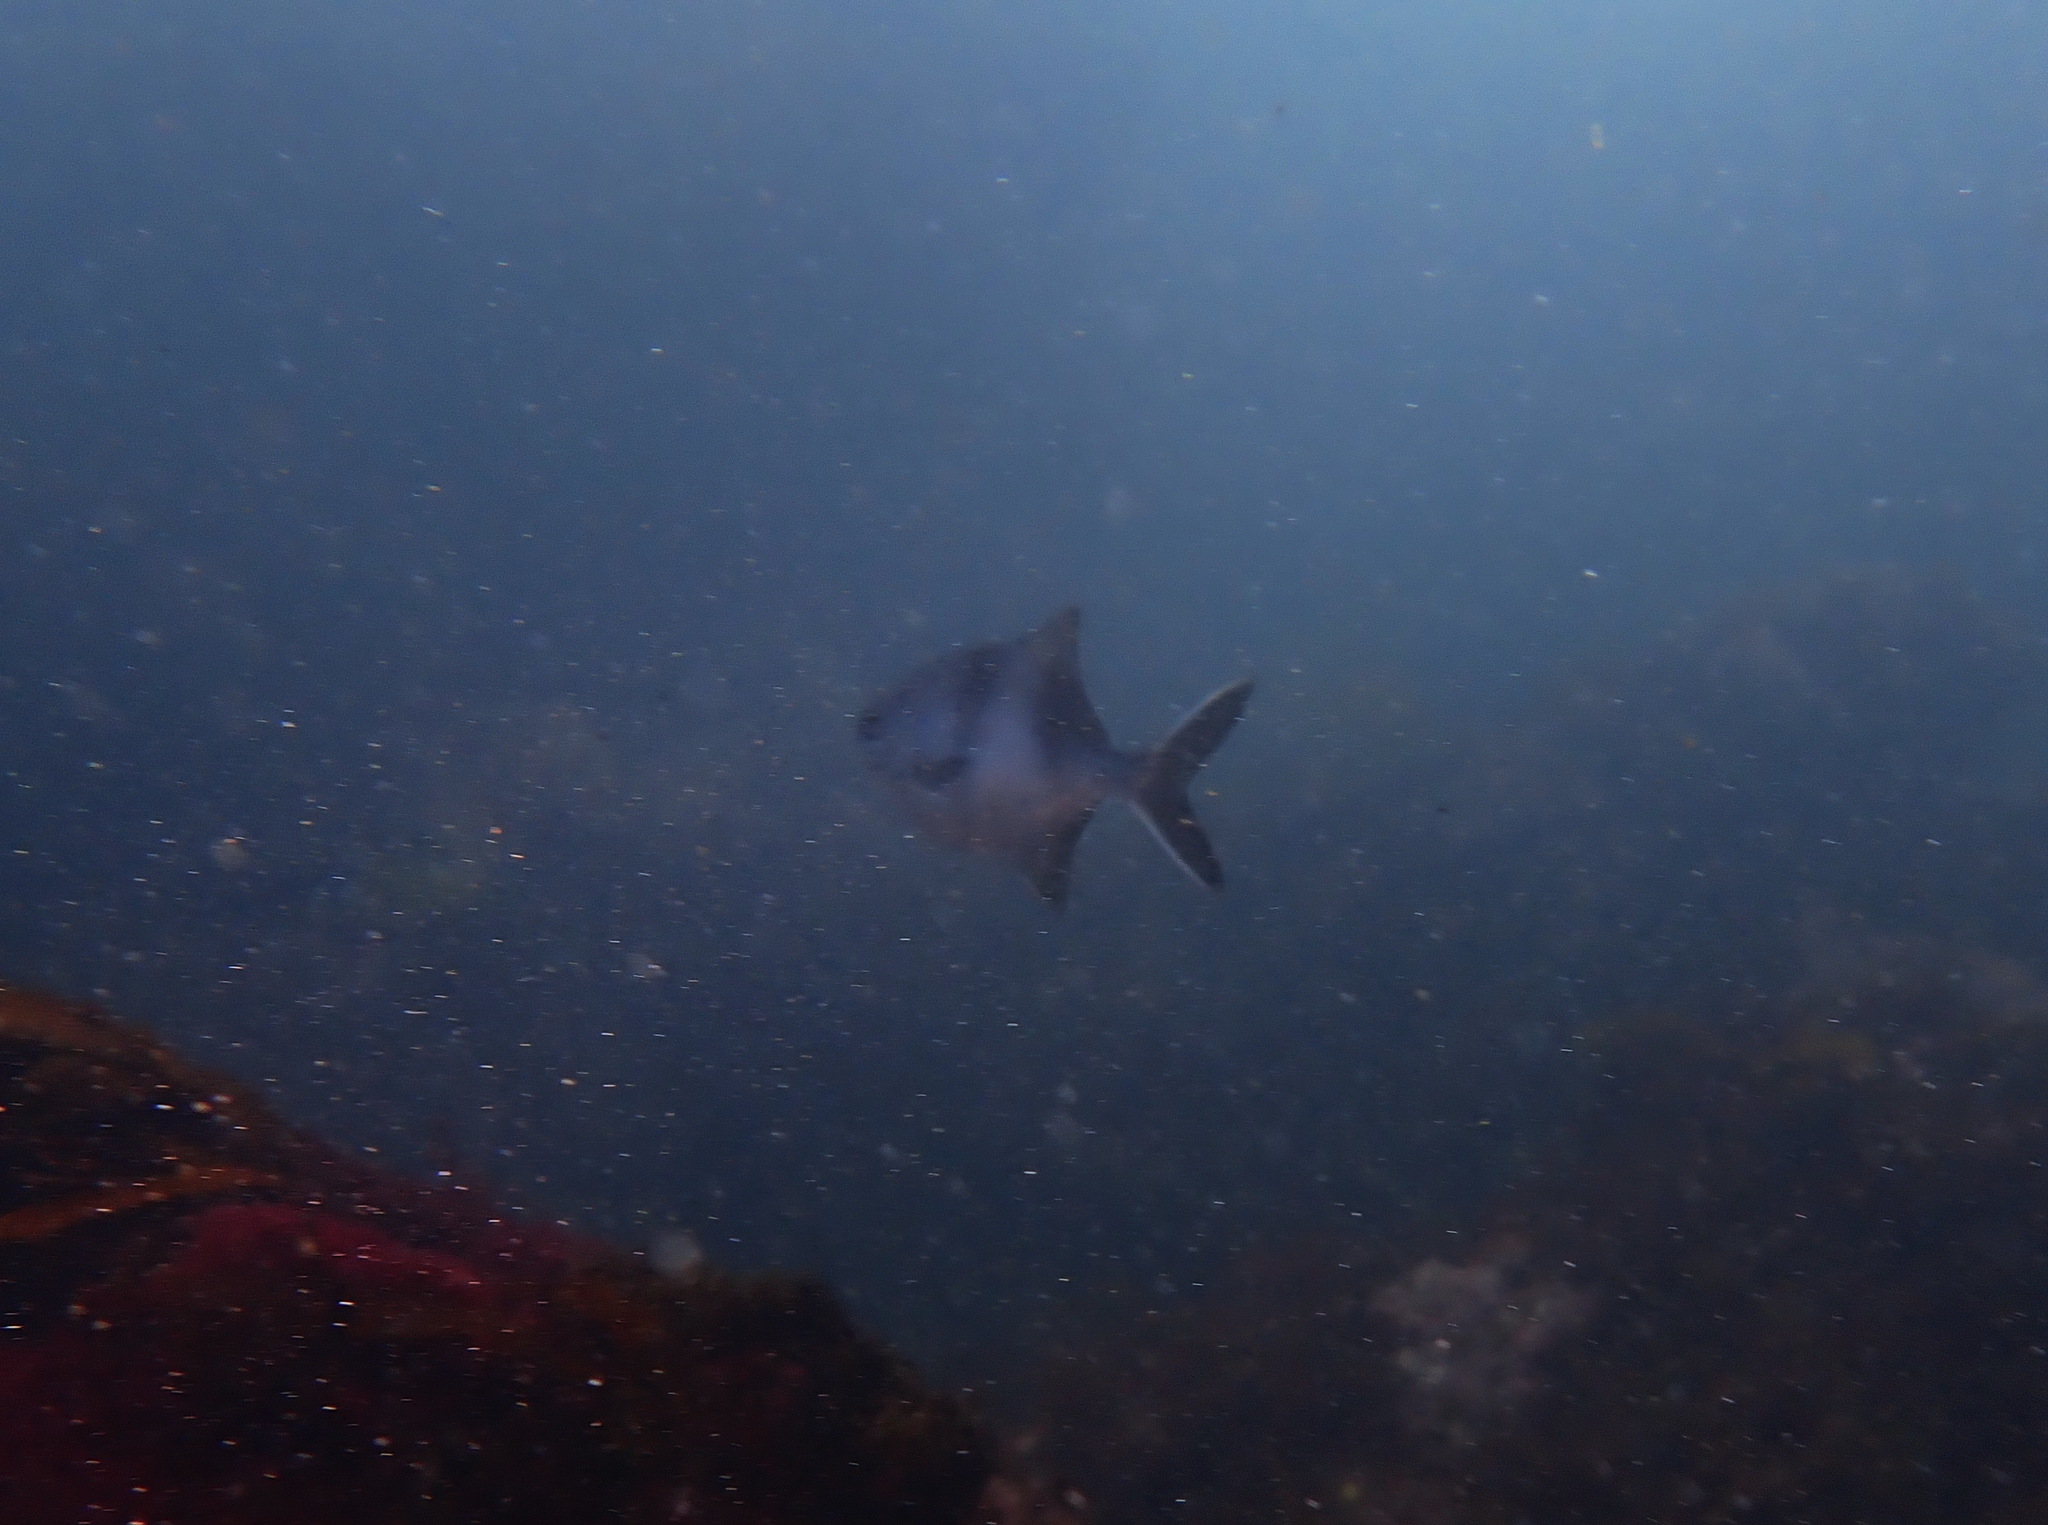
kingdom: Animalia
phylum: Chordata
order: Perciformes
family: Kyphosidae
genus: Scorpis
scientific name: Scorpis aequipinnis
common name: Sea sweep
